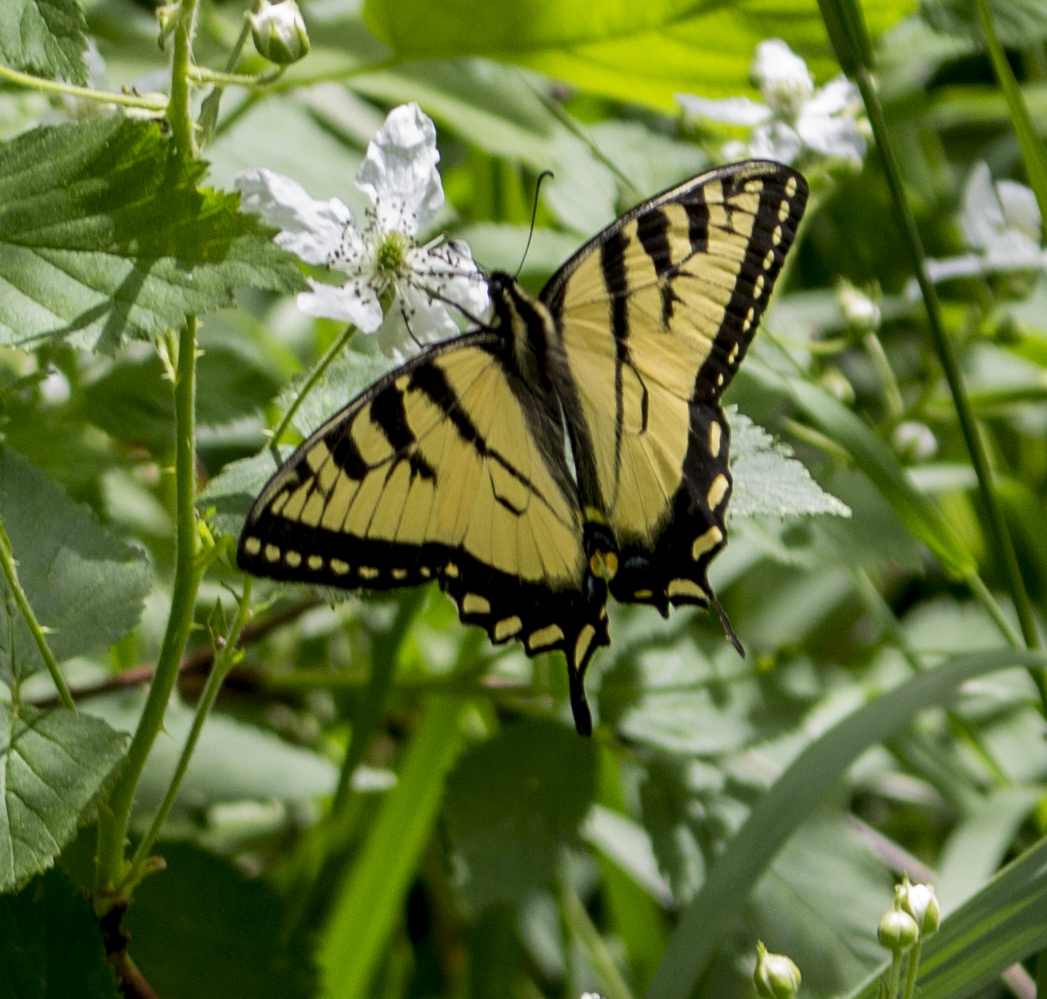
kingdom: Animalia
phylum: Arthropoda
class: Insecta
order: Lepidoptera
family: Papilionidae
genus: Papilio
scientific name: Papilio canadensis
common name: Canadian tiger swallowtail
